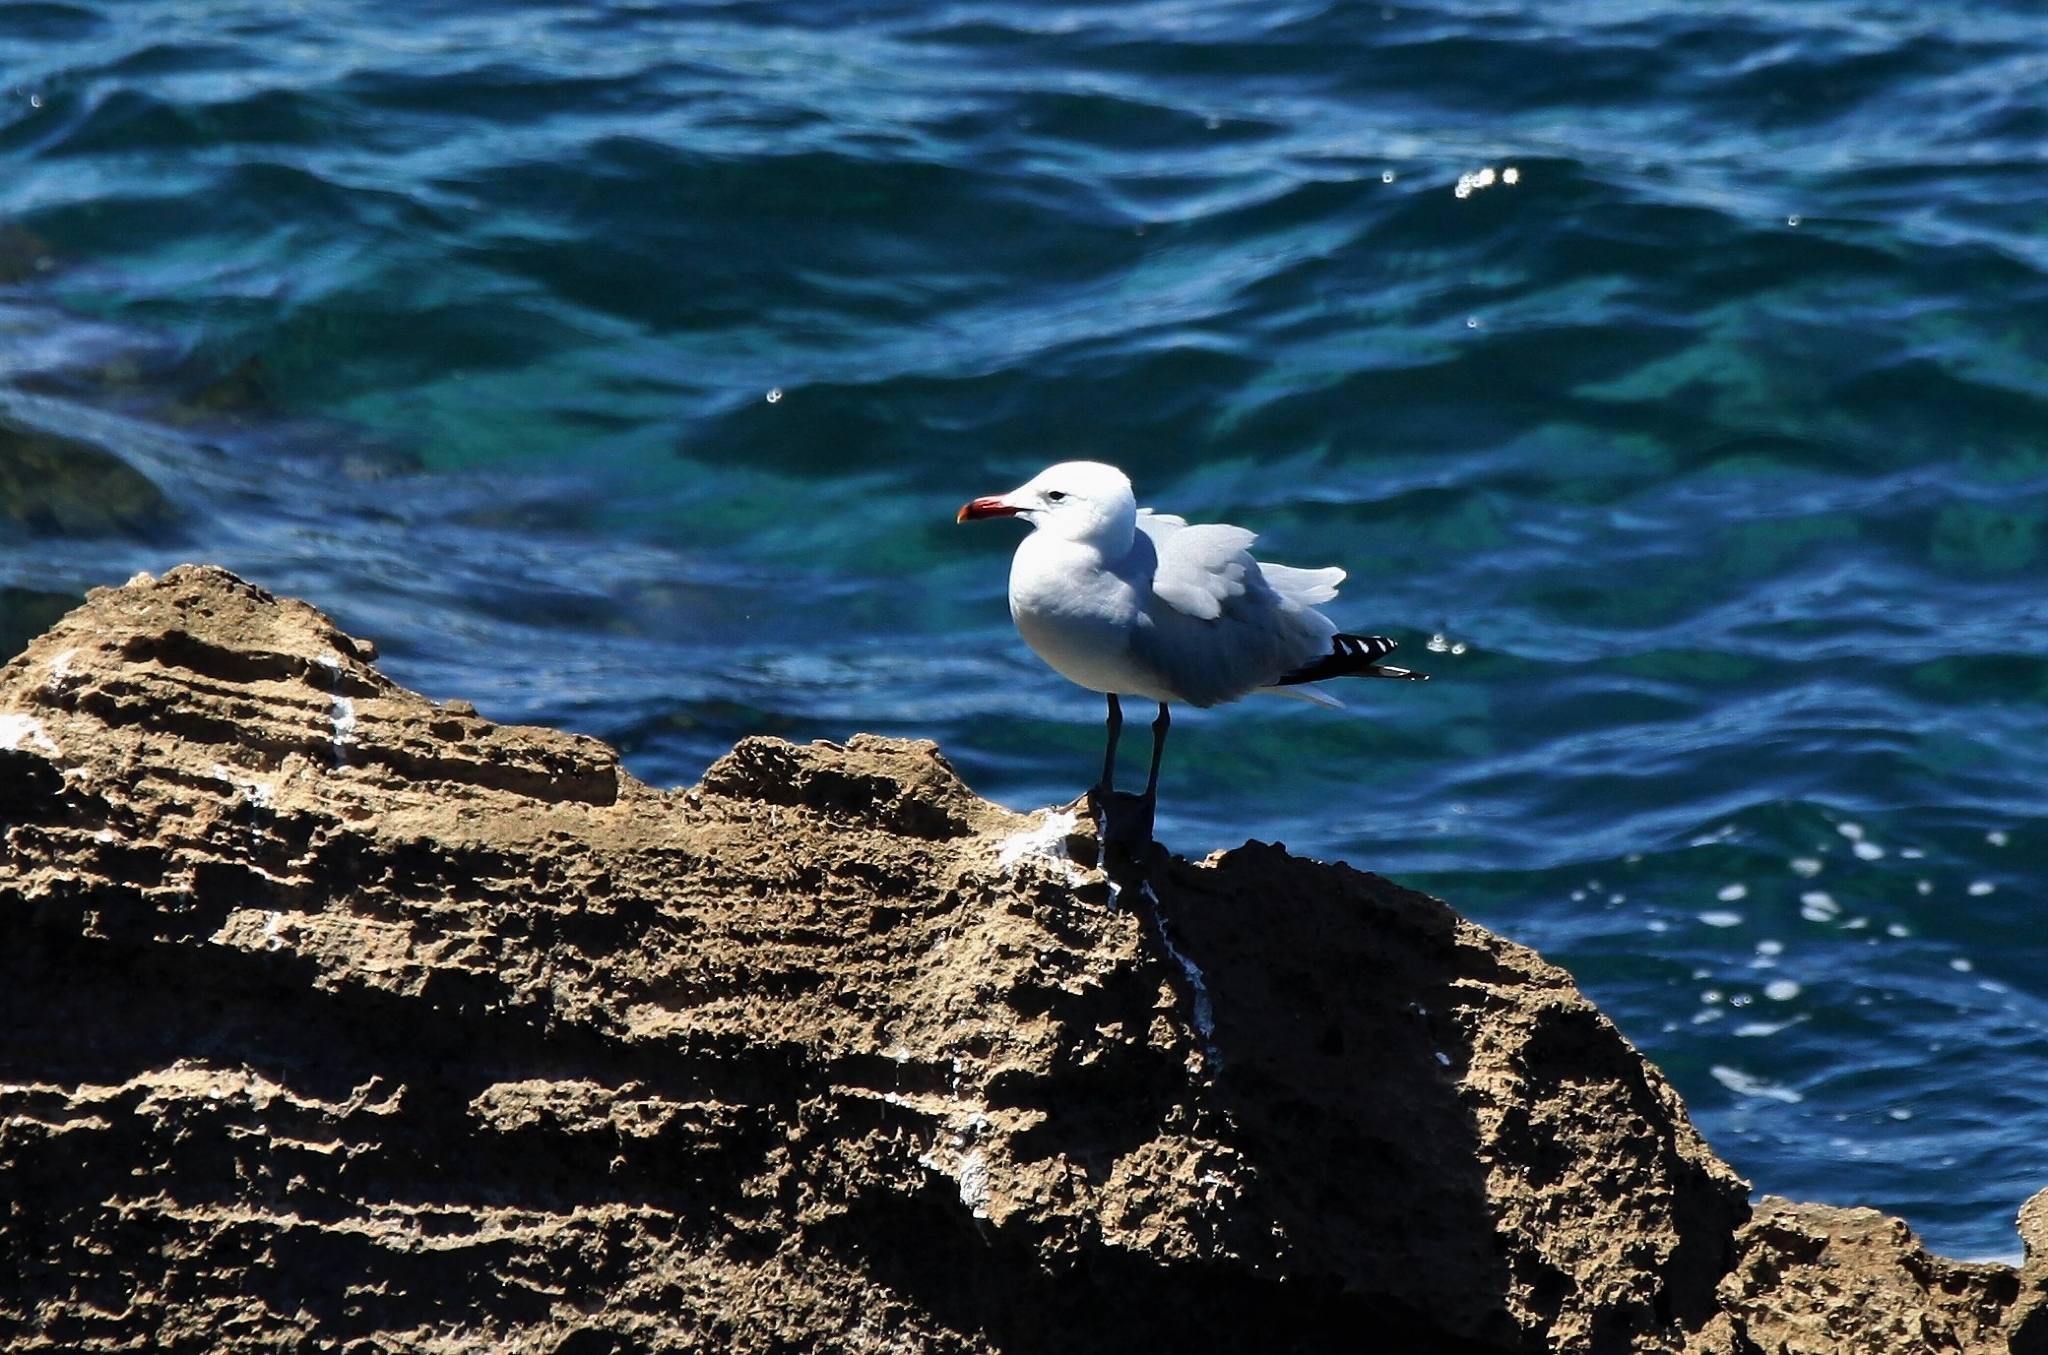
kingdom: Animalia
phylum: Chordata
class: Aves
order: Charadriiformes
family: Laridae
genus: Ichthyaetus
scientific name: Ichthyaetus audouinii
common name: Audouin's gull
